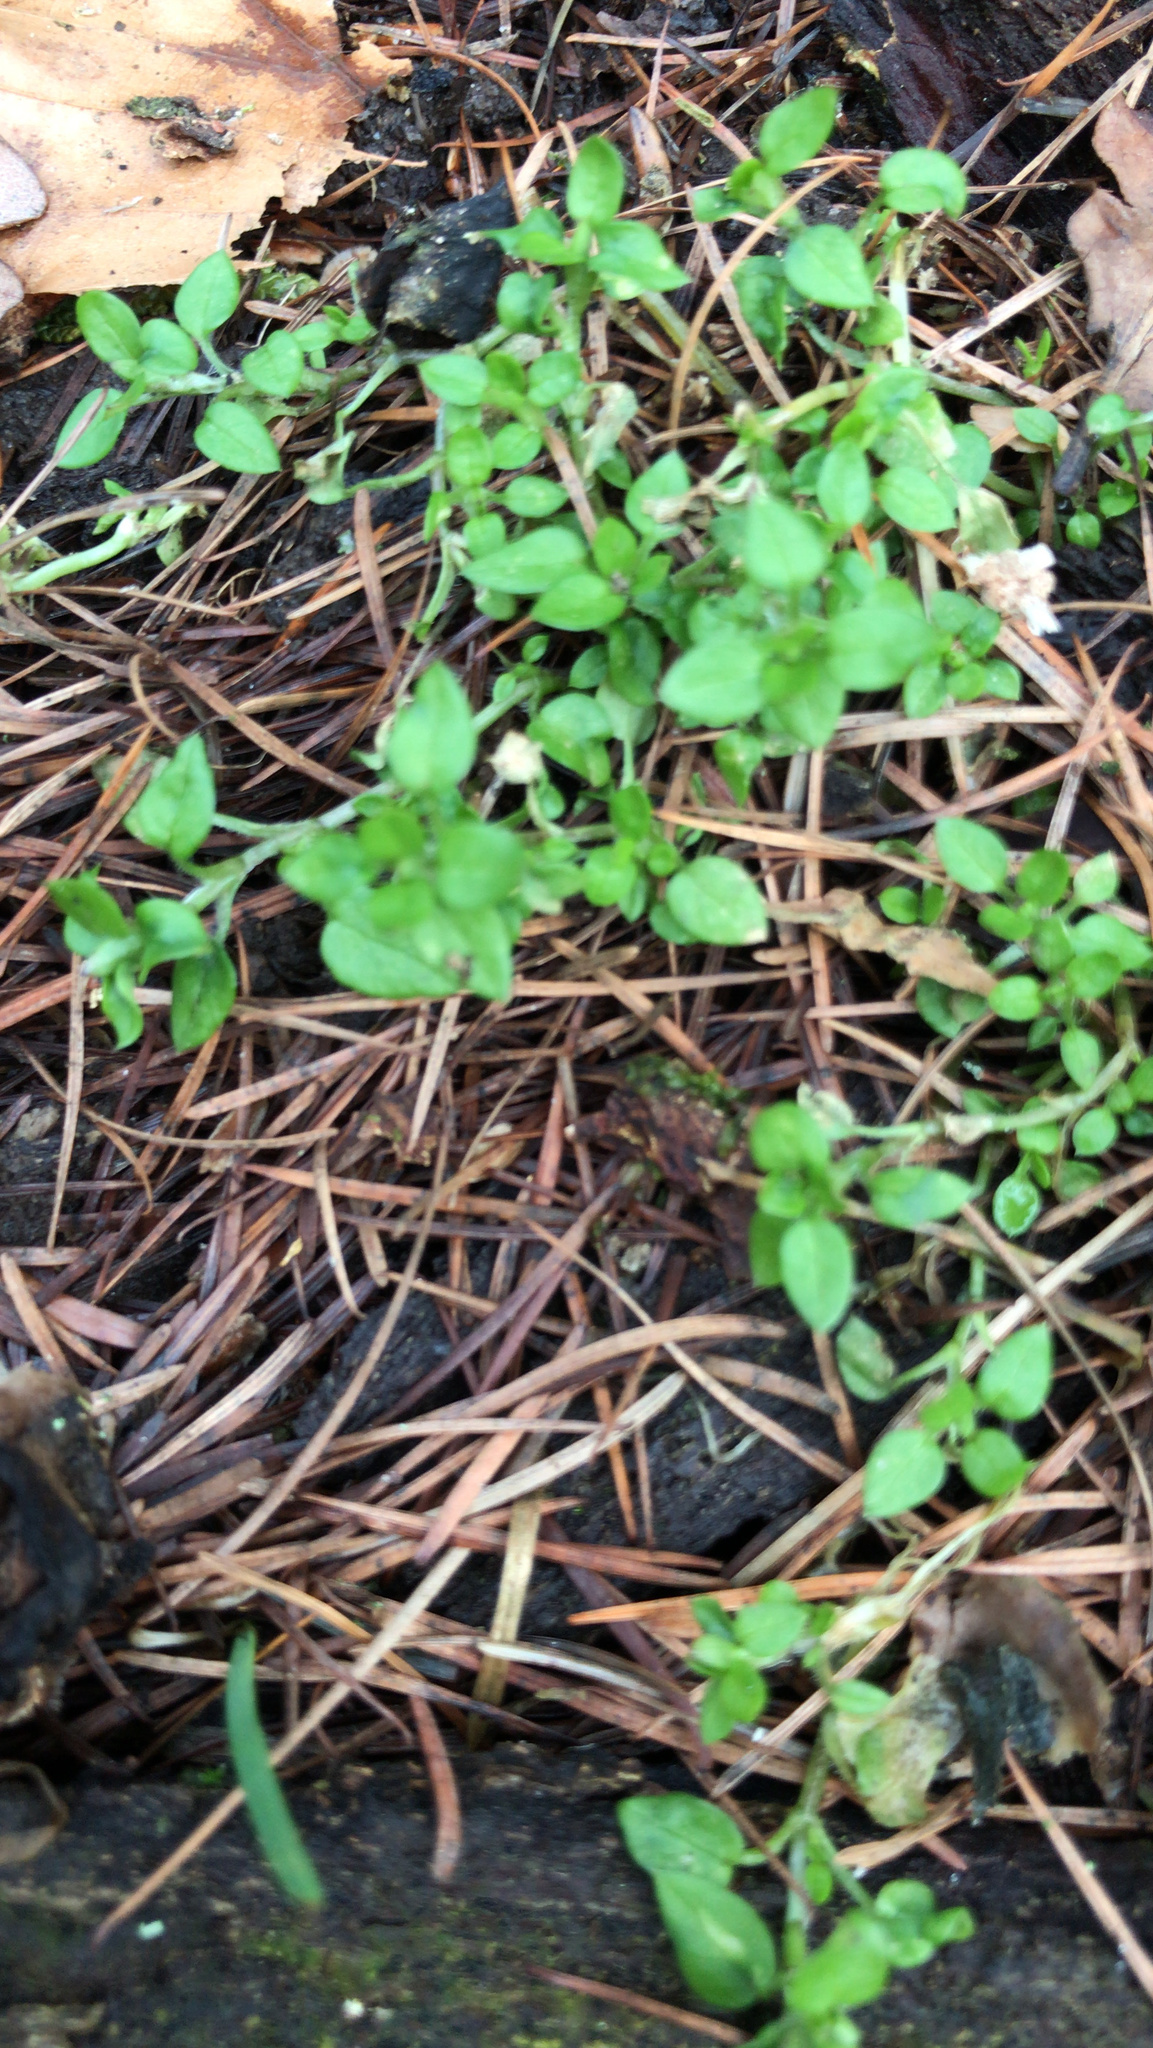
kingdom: Plantae
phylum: Tracheophyta
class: Magnoliopsida
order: Caryophyllales
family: Caryophyllaceae
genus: Stellaria
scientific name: Stellaria media
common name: Common chickweed
